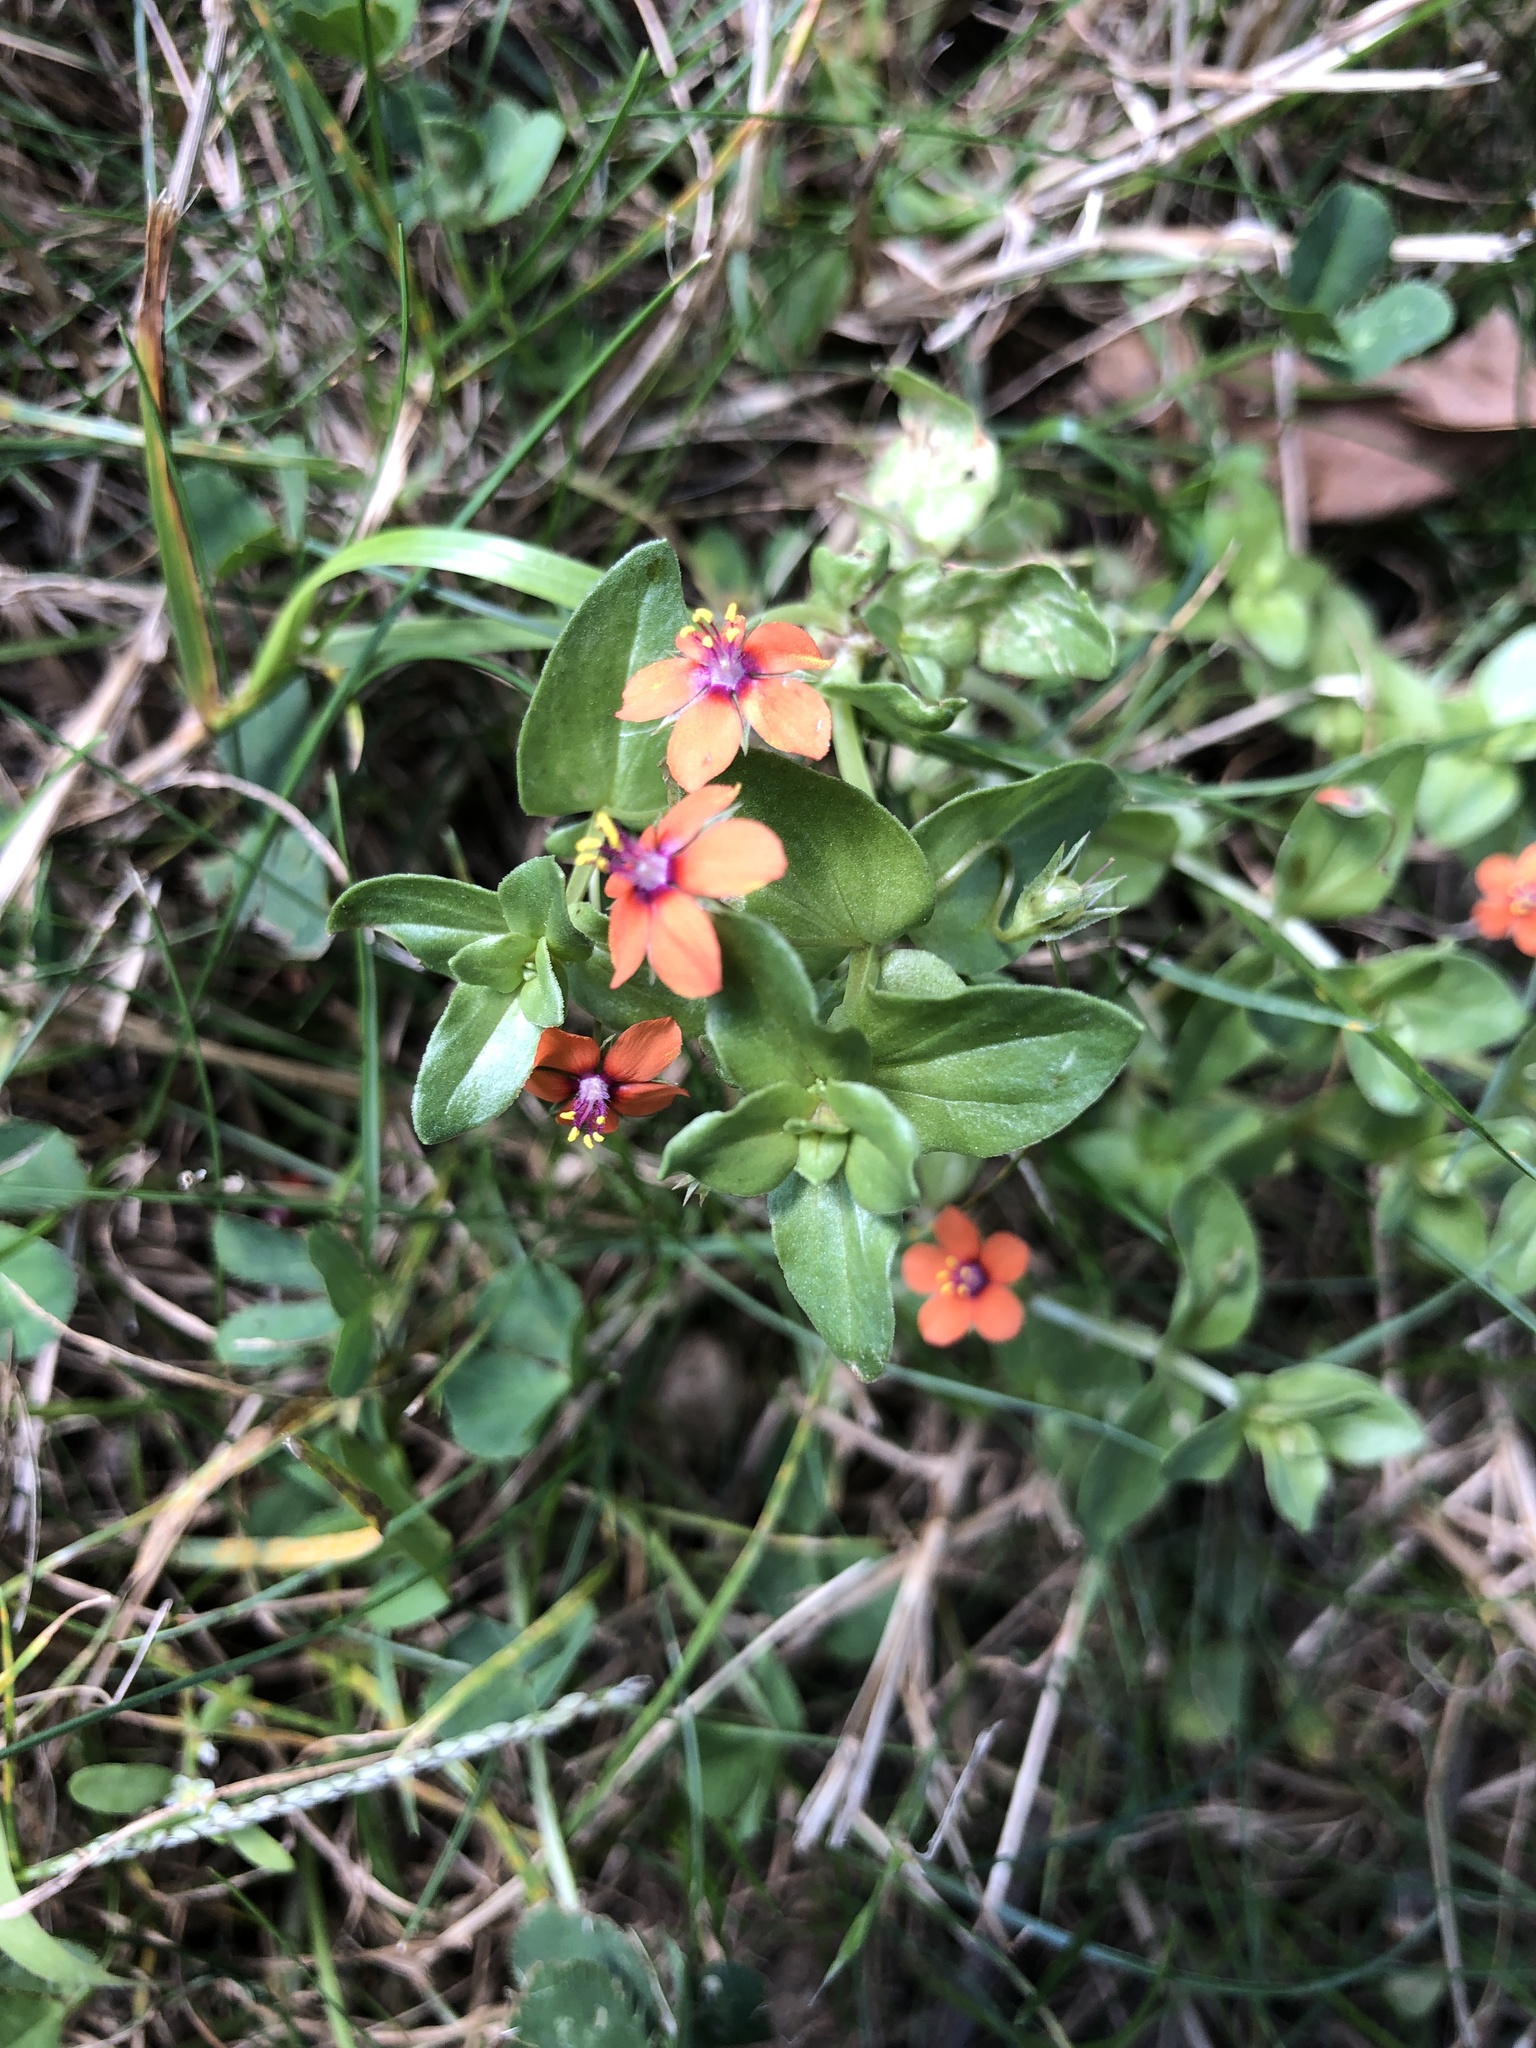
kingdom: Plantae
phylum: Tracheophyta
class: Magnoliopsida
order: Ericales
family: Primulaceae
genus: Lysimachia
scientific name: Lysimachia arvensis
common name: Scarlet pimpernel
